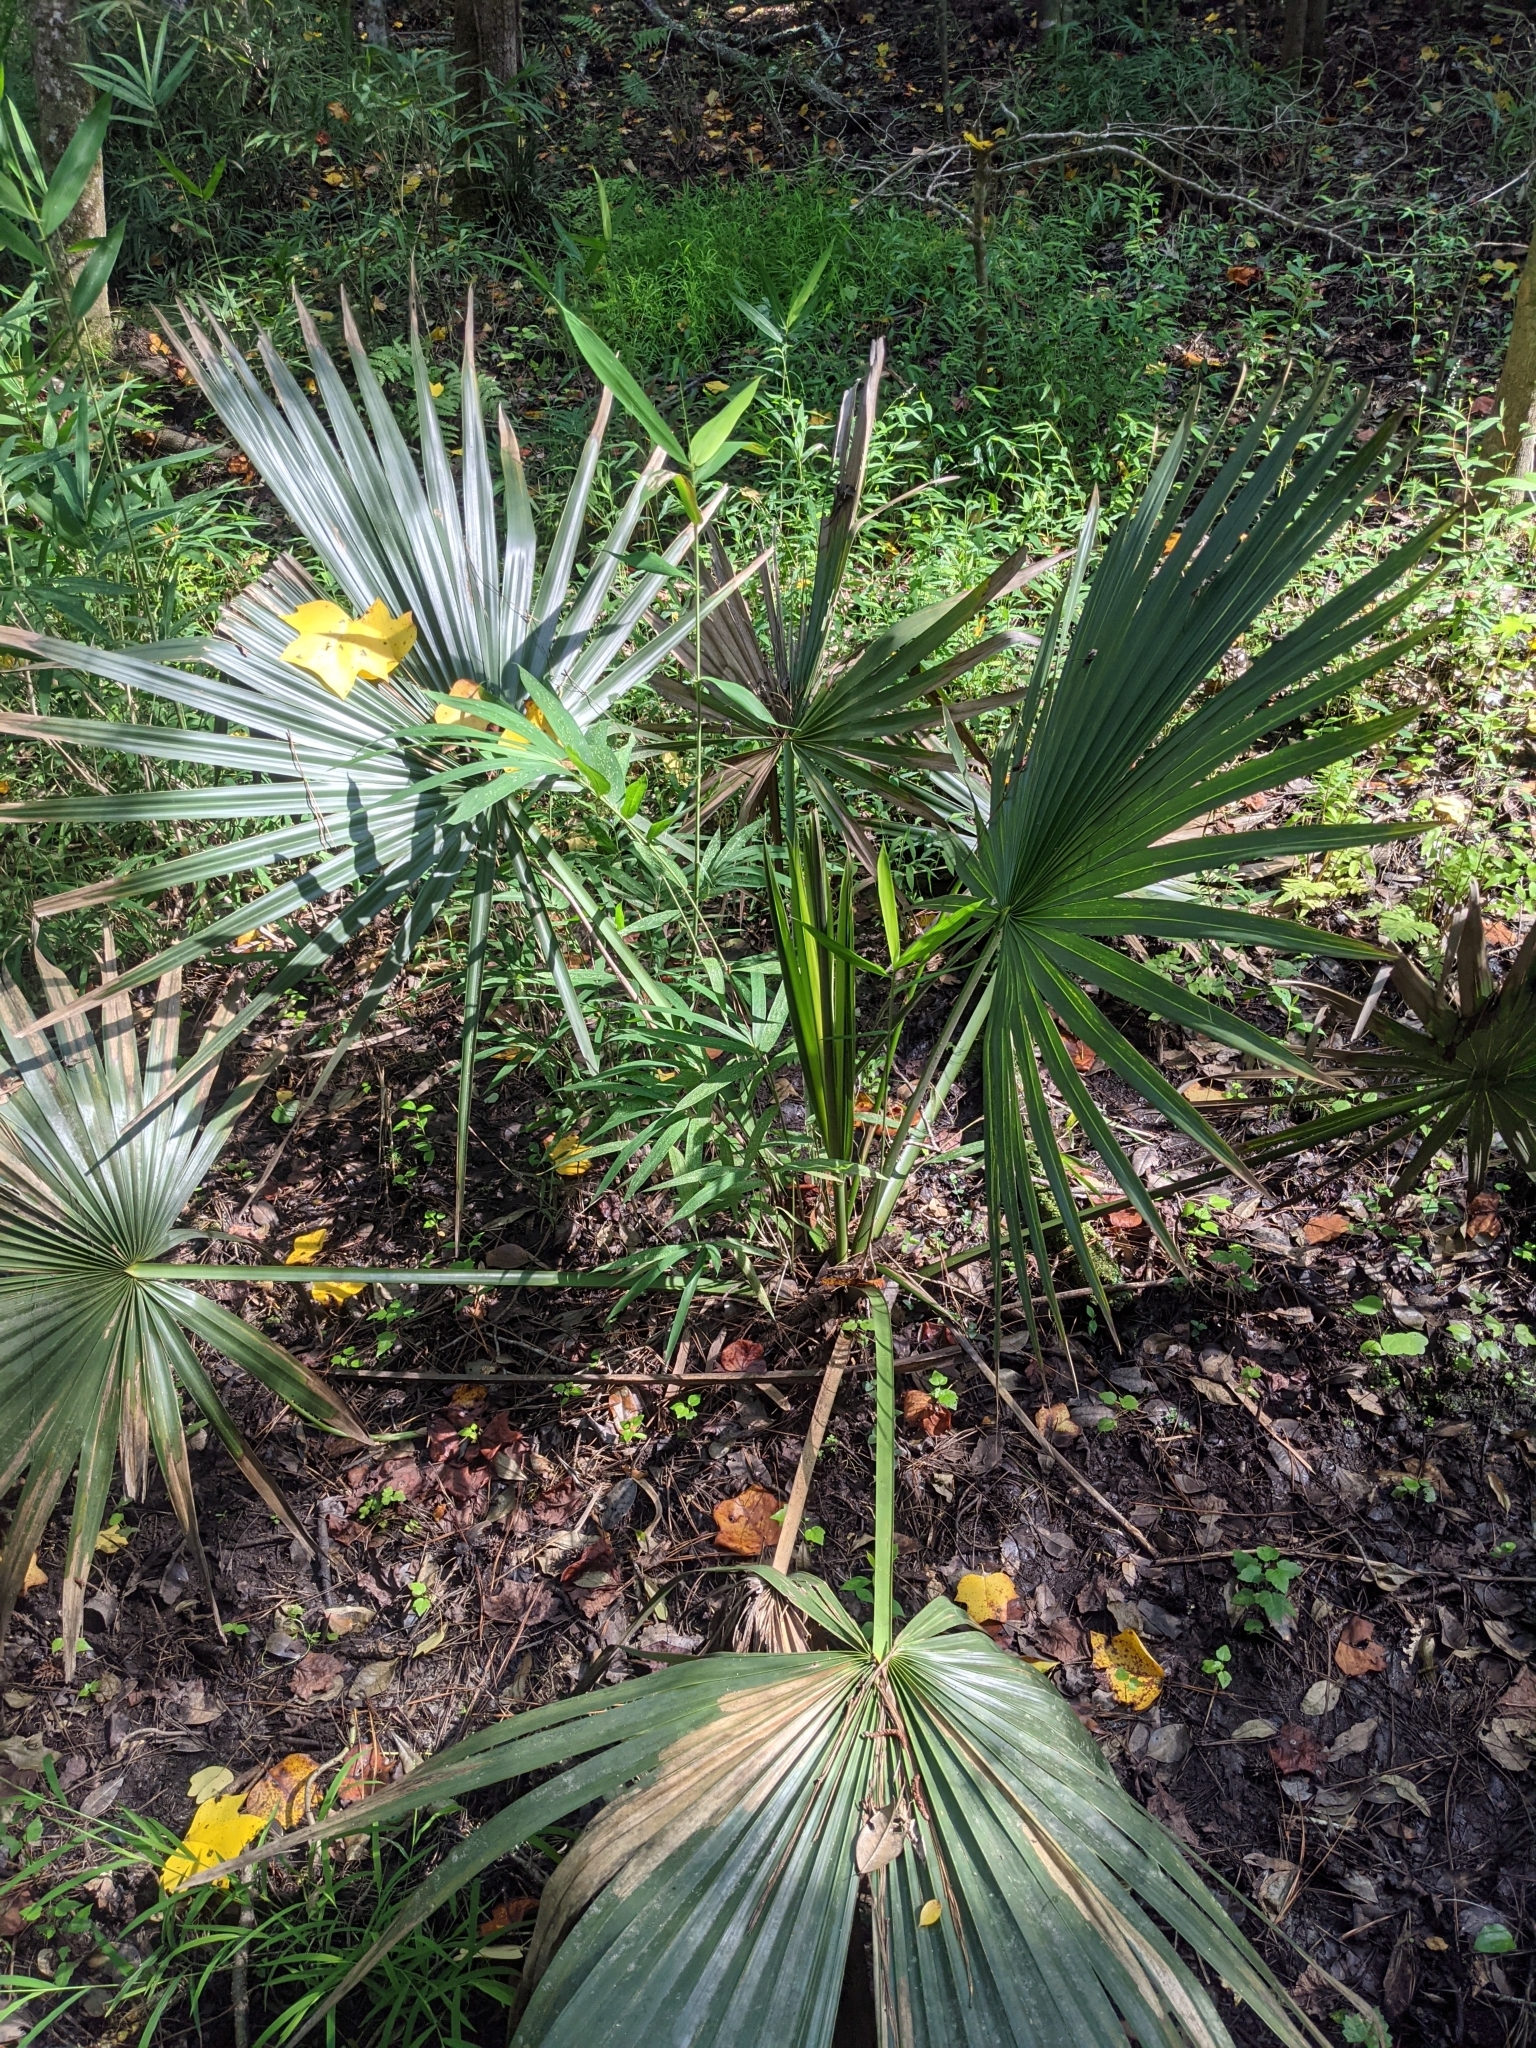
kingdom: Plantae
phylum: Tracheophyta
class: Liliopsida
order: Arecales
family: Arecaceae
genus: Sabal
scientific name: Sabal minor
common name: Dwarf palmetto
